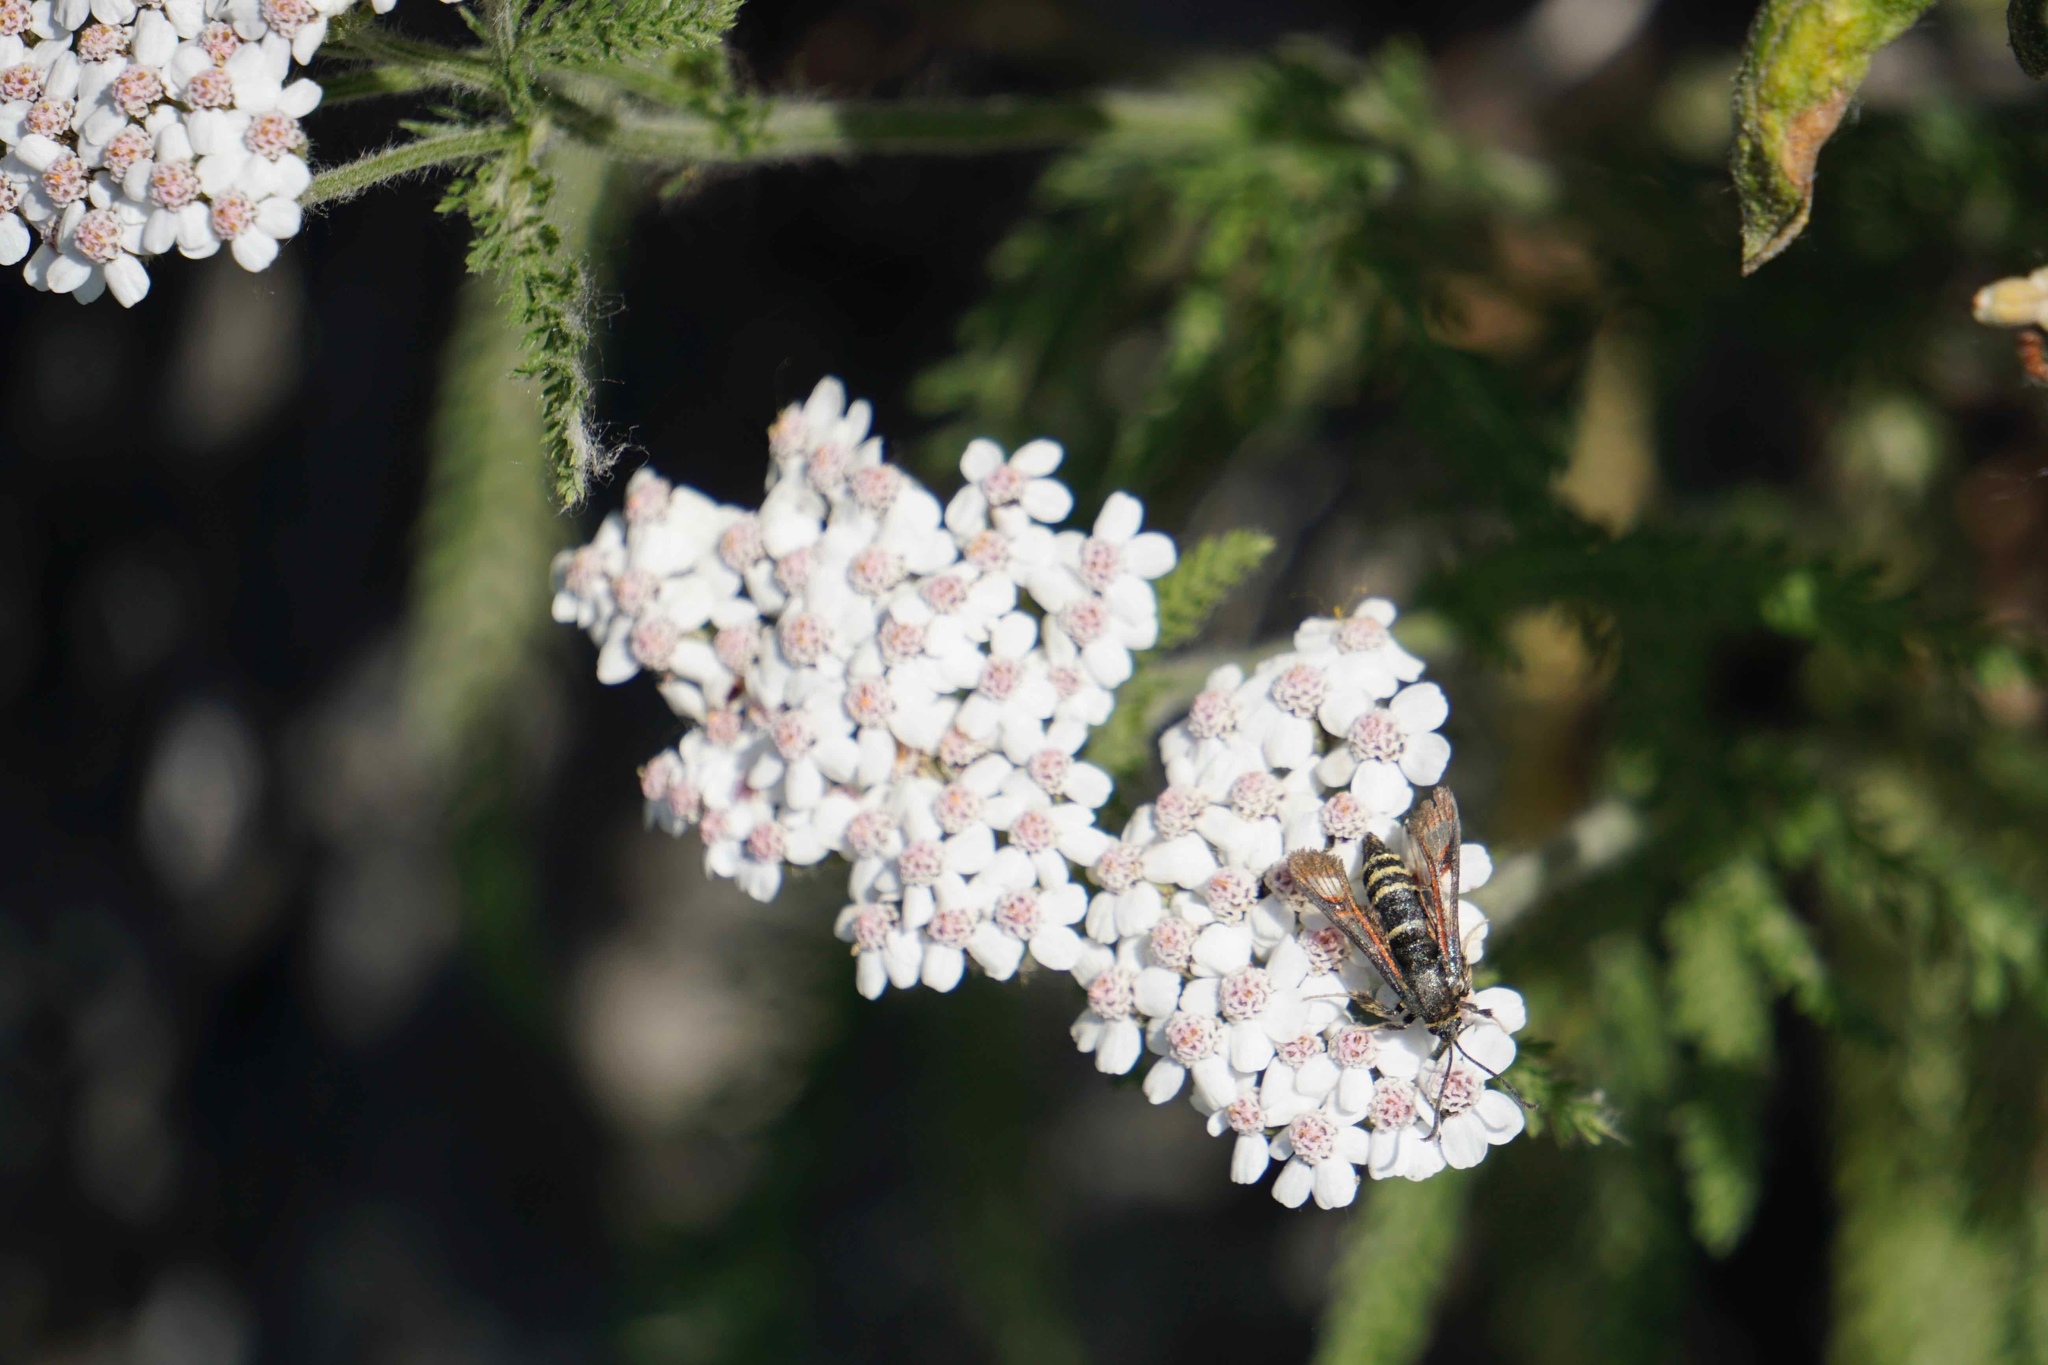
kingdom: Plantae
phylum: Tracheophyta
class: Magnoliopsida
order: Asterales
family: Asteraceae
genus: Achillea
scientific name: Achillea millefolium
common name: Yarrow
